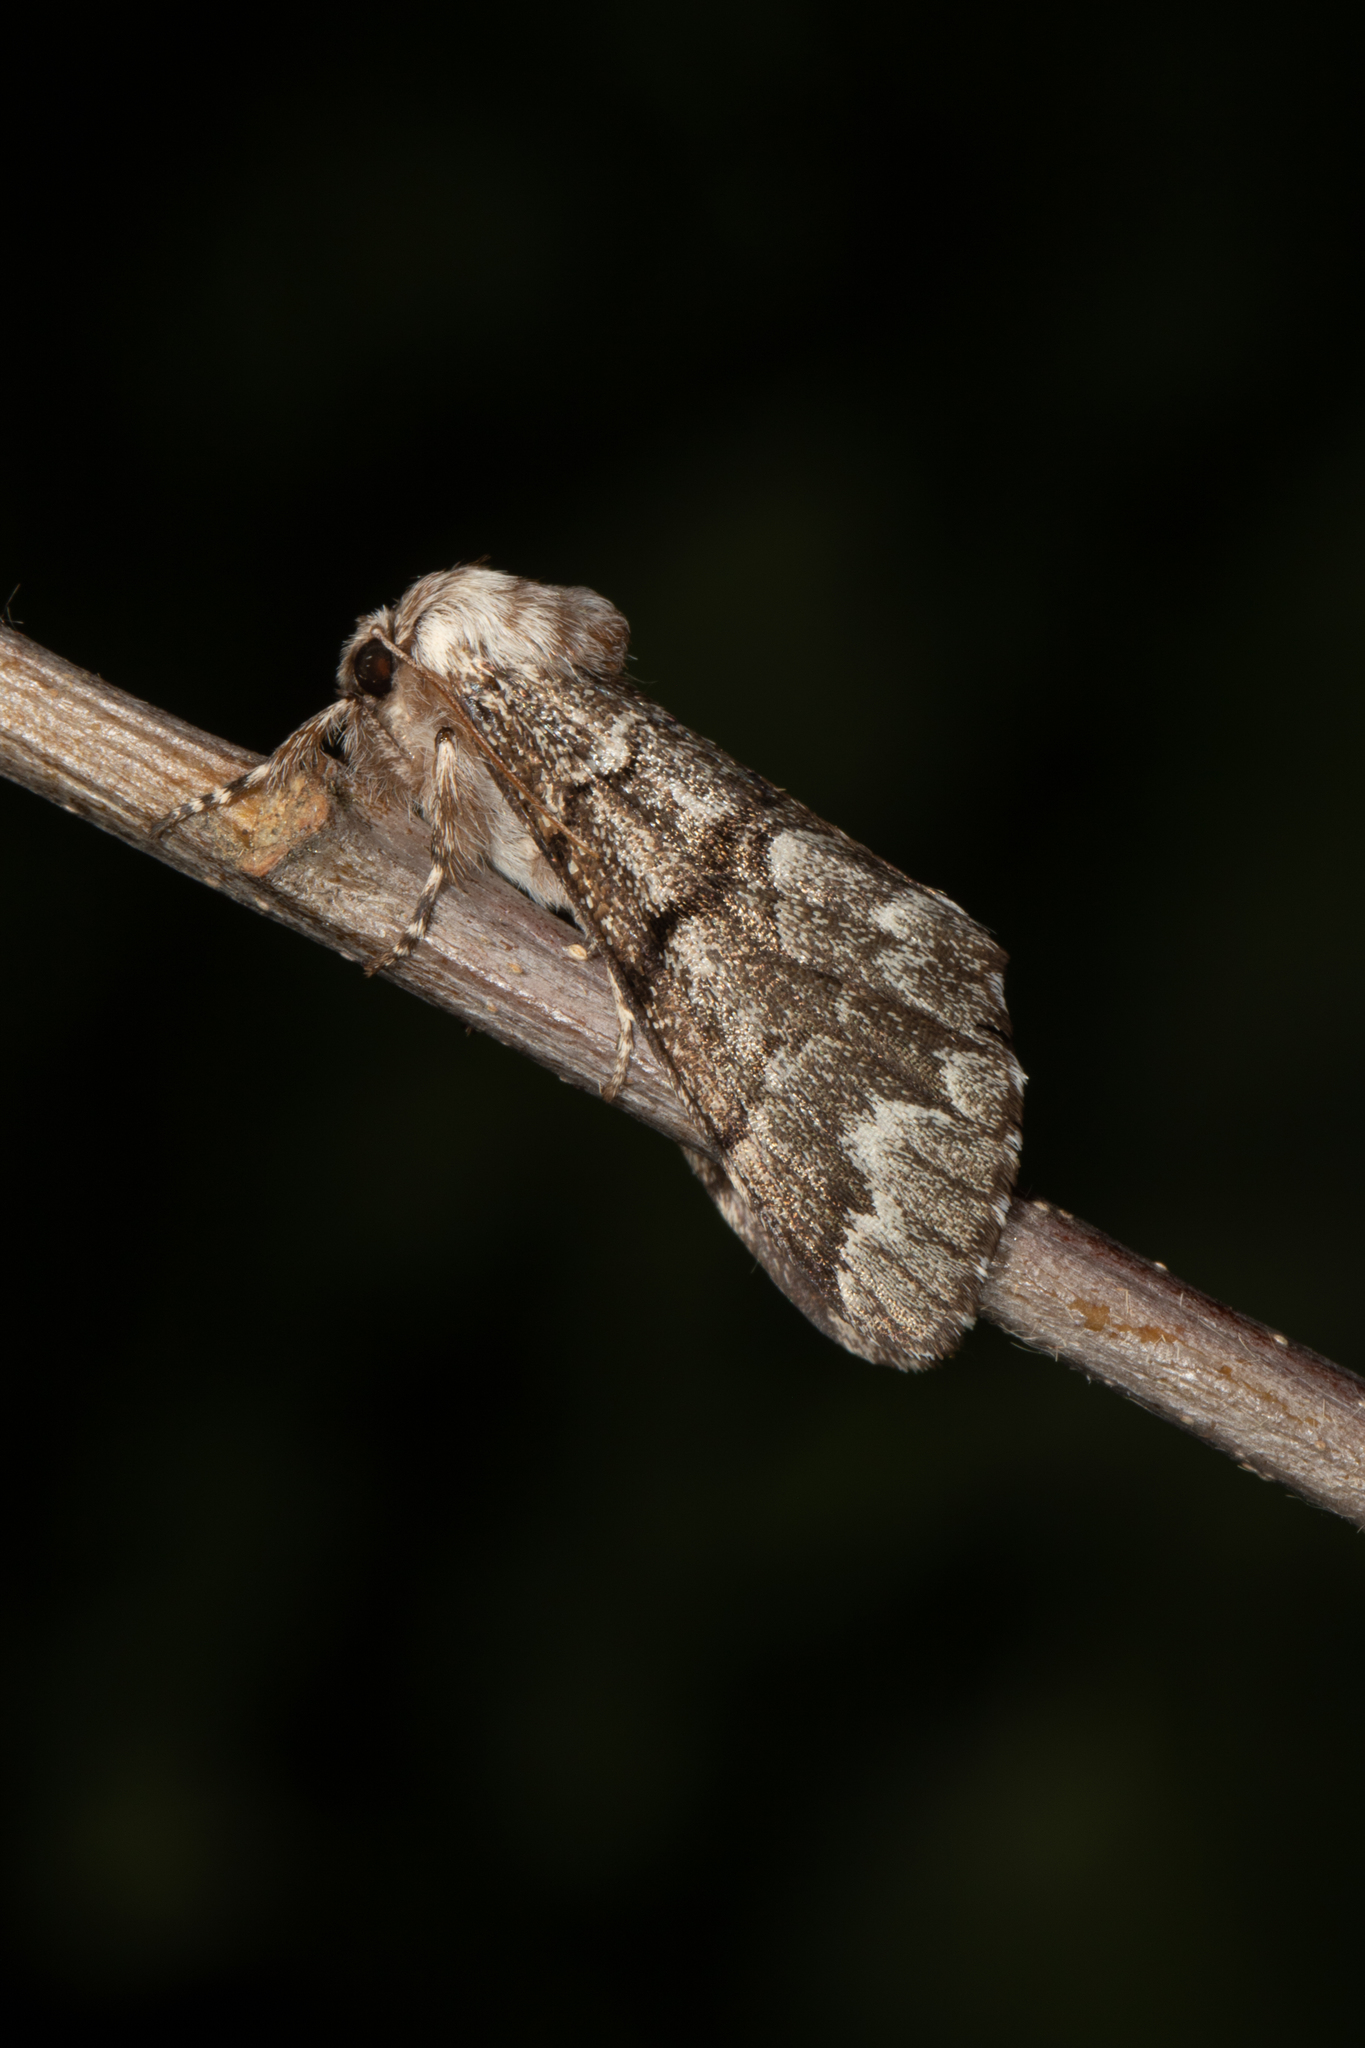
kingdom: Animalia
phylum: Arthropoda
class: Insecta
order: Lepidoptera
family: Noctuidae
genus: Panthea
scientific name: Panthea furcilla
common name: Eastern panthea moth
